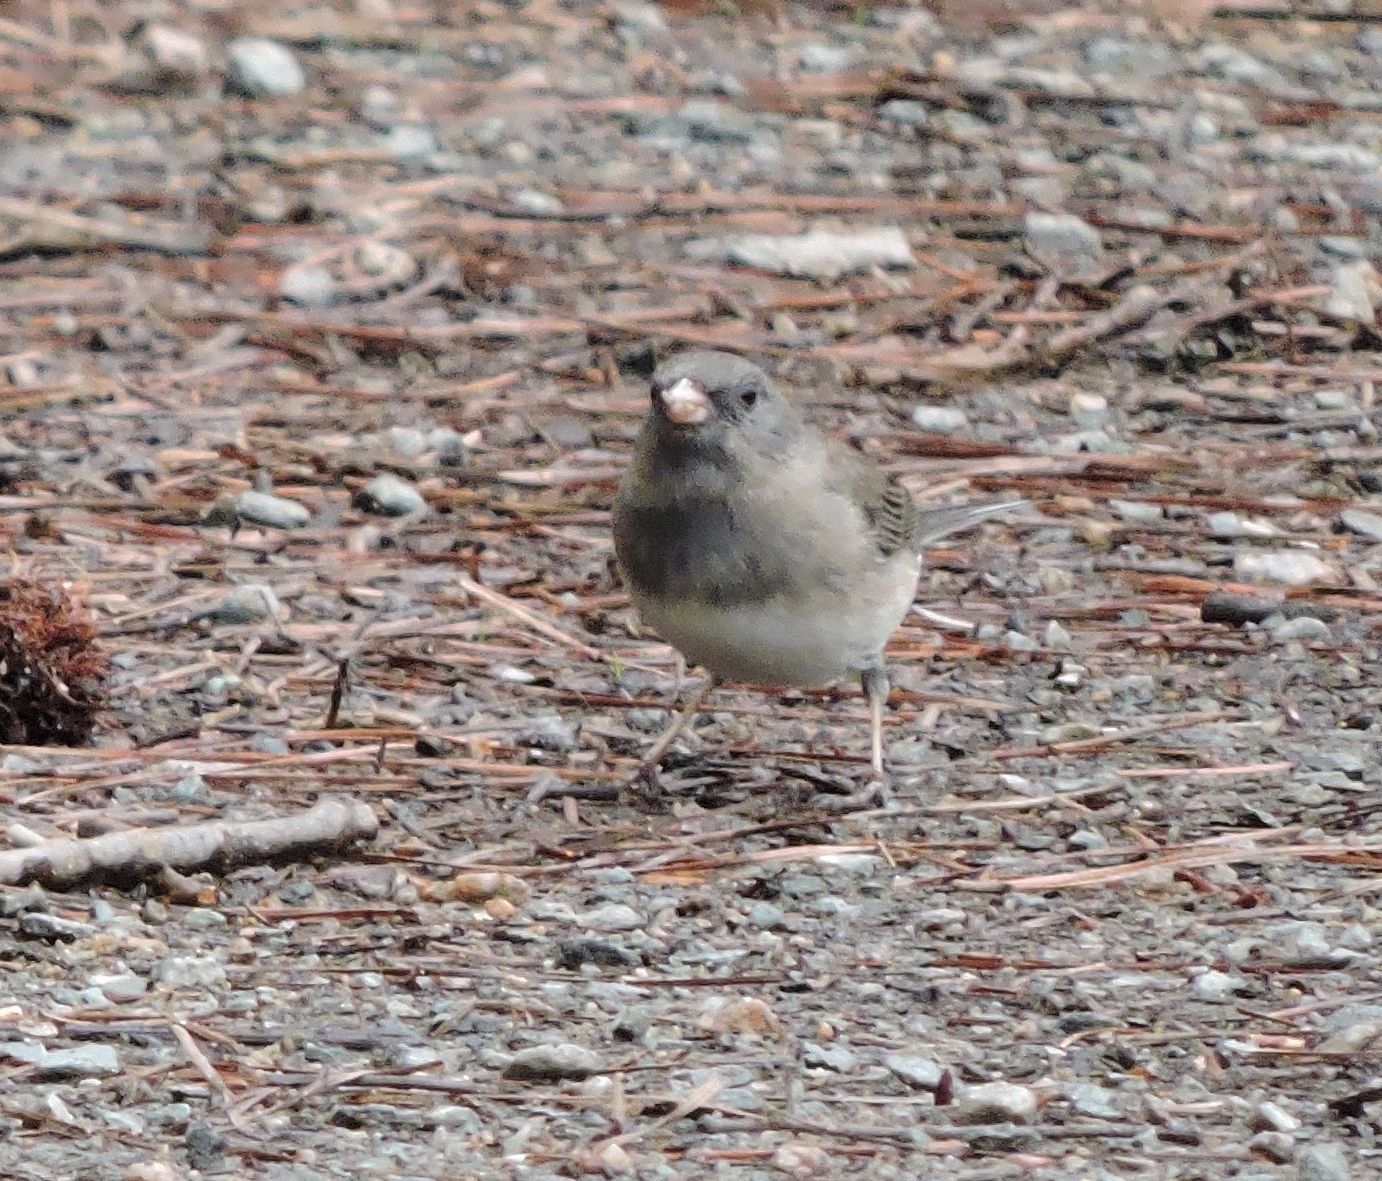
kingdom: Animalia
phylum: Chordata
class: Aves
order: Passeriformes
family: Passerellidae
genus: Junco
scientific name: Junco hyemalis
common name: Dark-eyed junco
